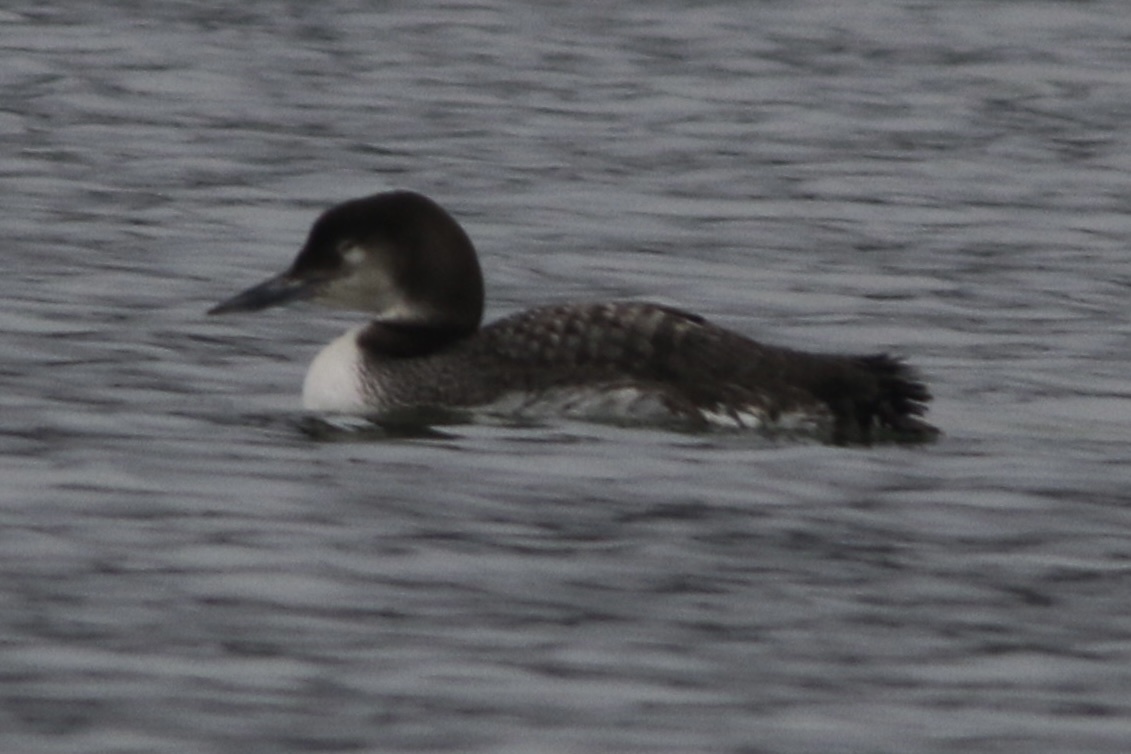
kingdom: Animalia
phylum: Chordata
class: Aves
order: Gaviiformes
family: Gaviidae
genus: Gavia
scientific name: Gavia immer
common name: Common loon
